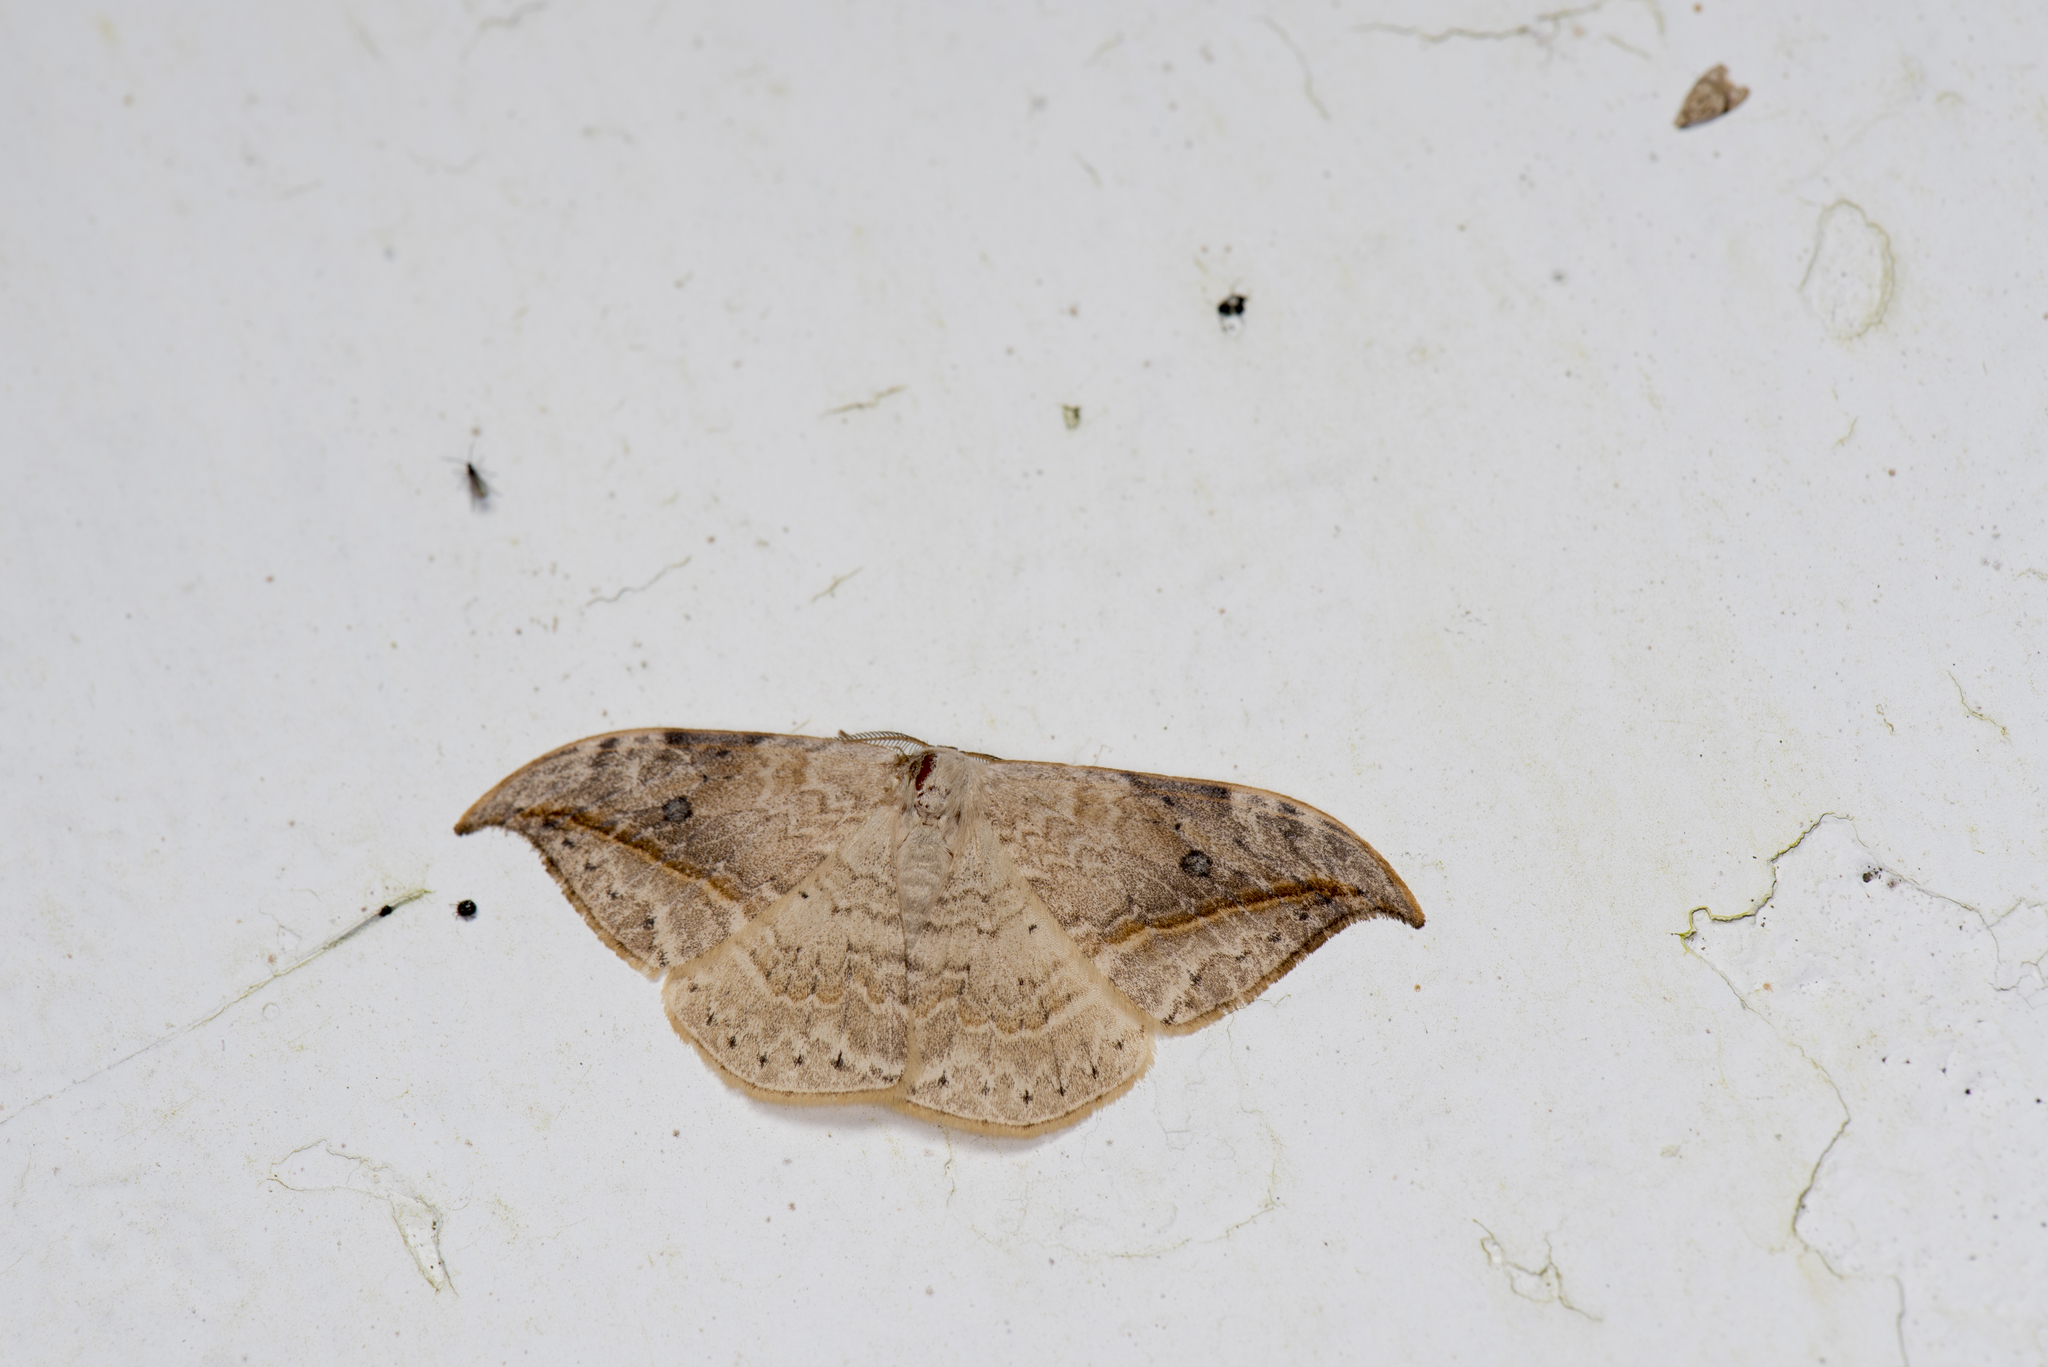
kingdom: Animalia
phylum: Arthropoda
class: Insecta
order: Lepidoptera
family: Drepanidae
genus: Drepana
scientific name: Drepana pallida
